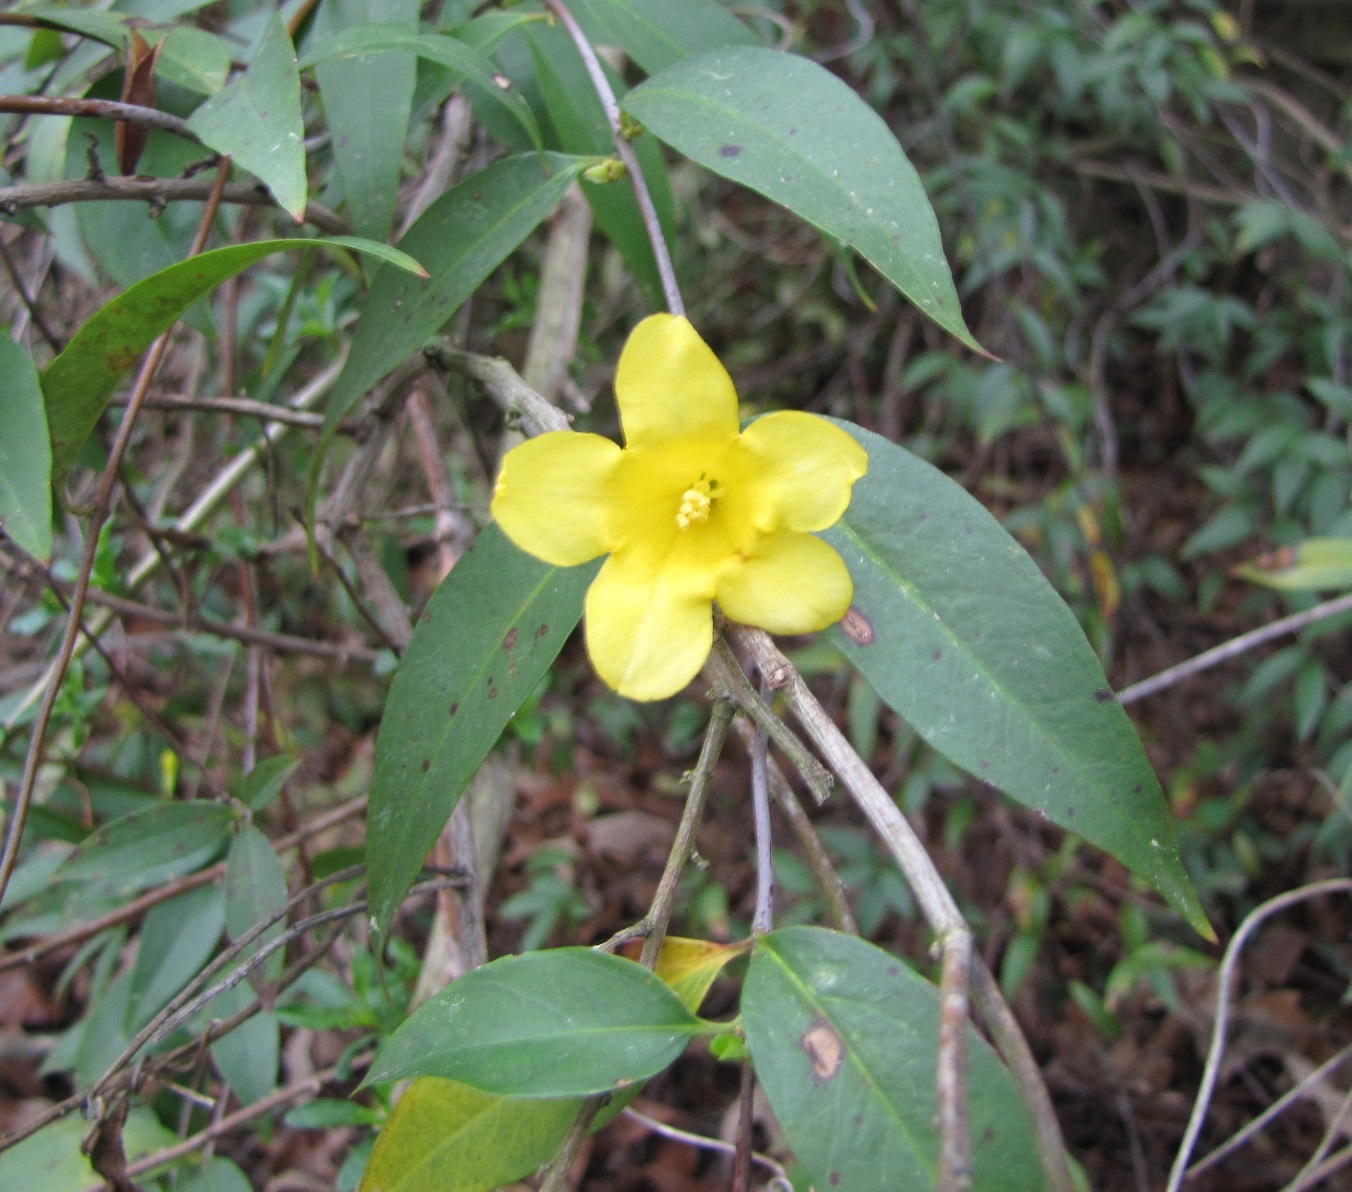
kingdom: Plantae
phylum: Tracheophyta
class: Magnoliopsida
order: Gentianales
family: Gelsemiaceae
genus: Gelsemium
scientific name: Gelsemium sempervirens
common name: Carolina-jasmine
